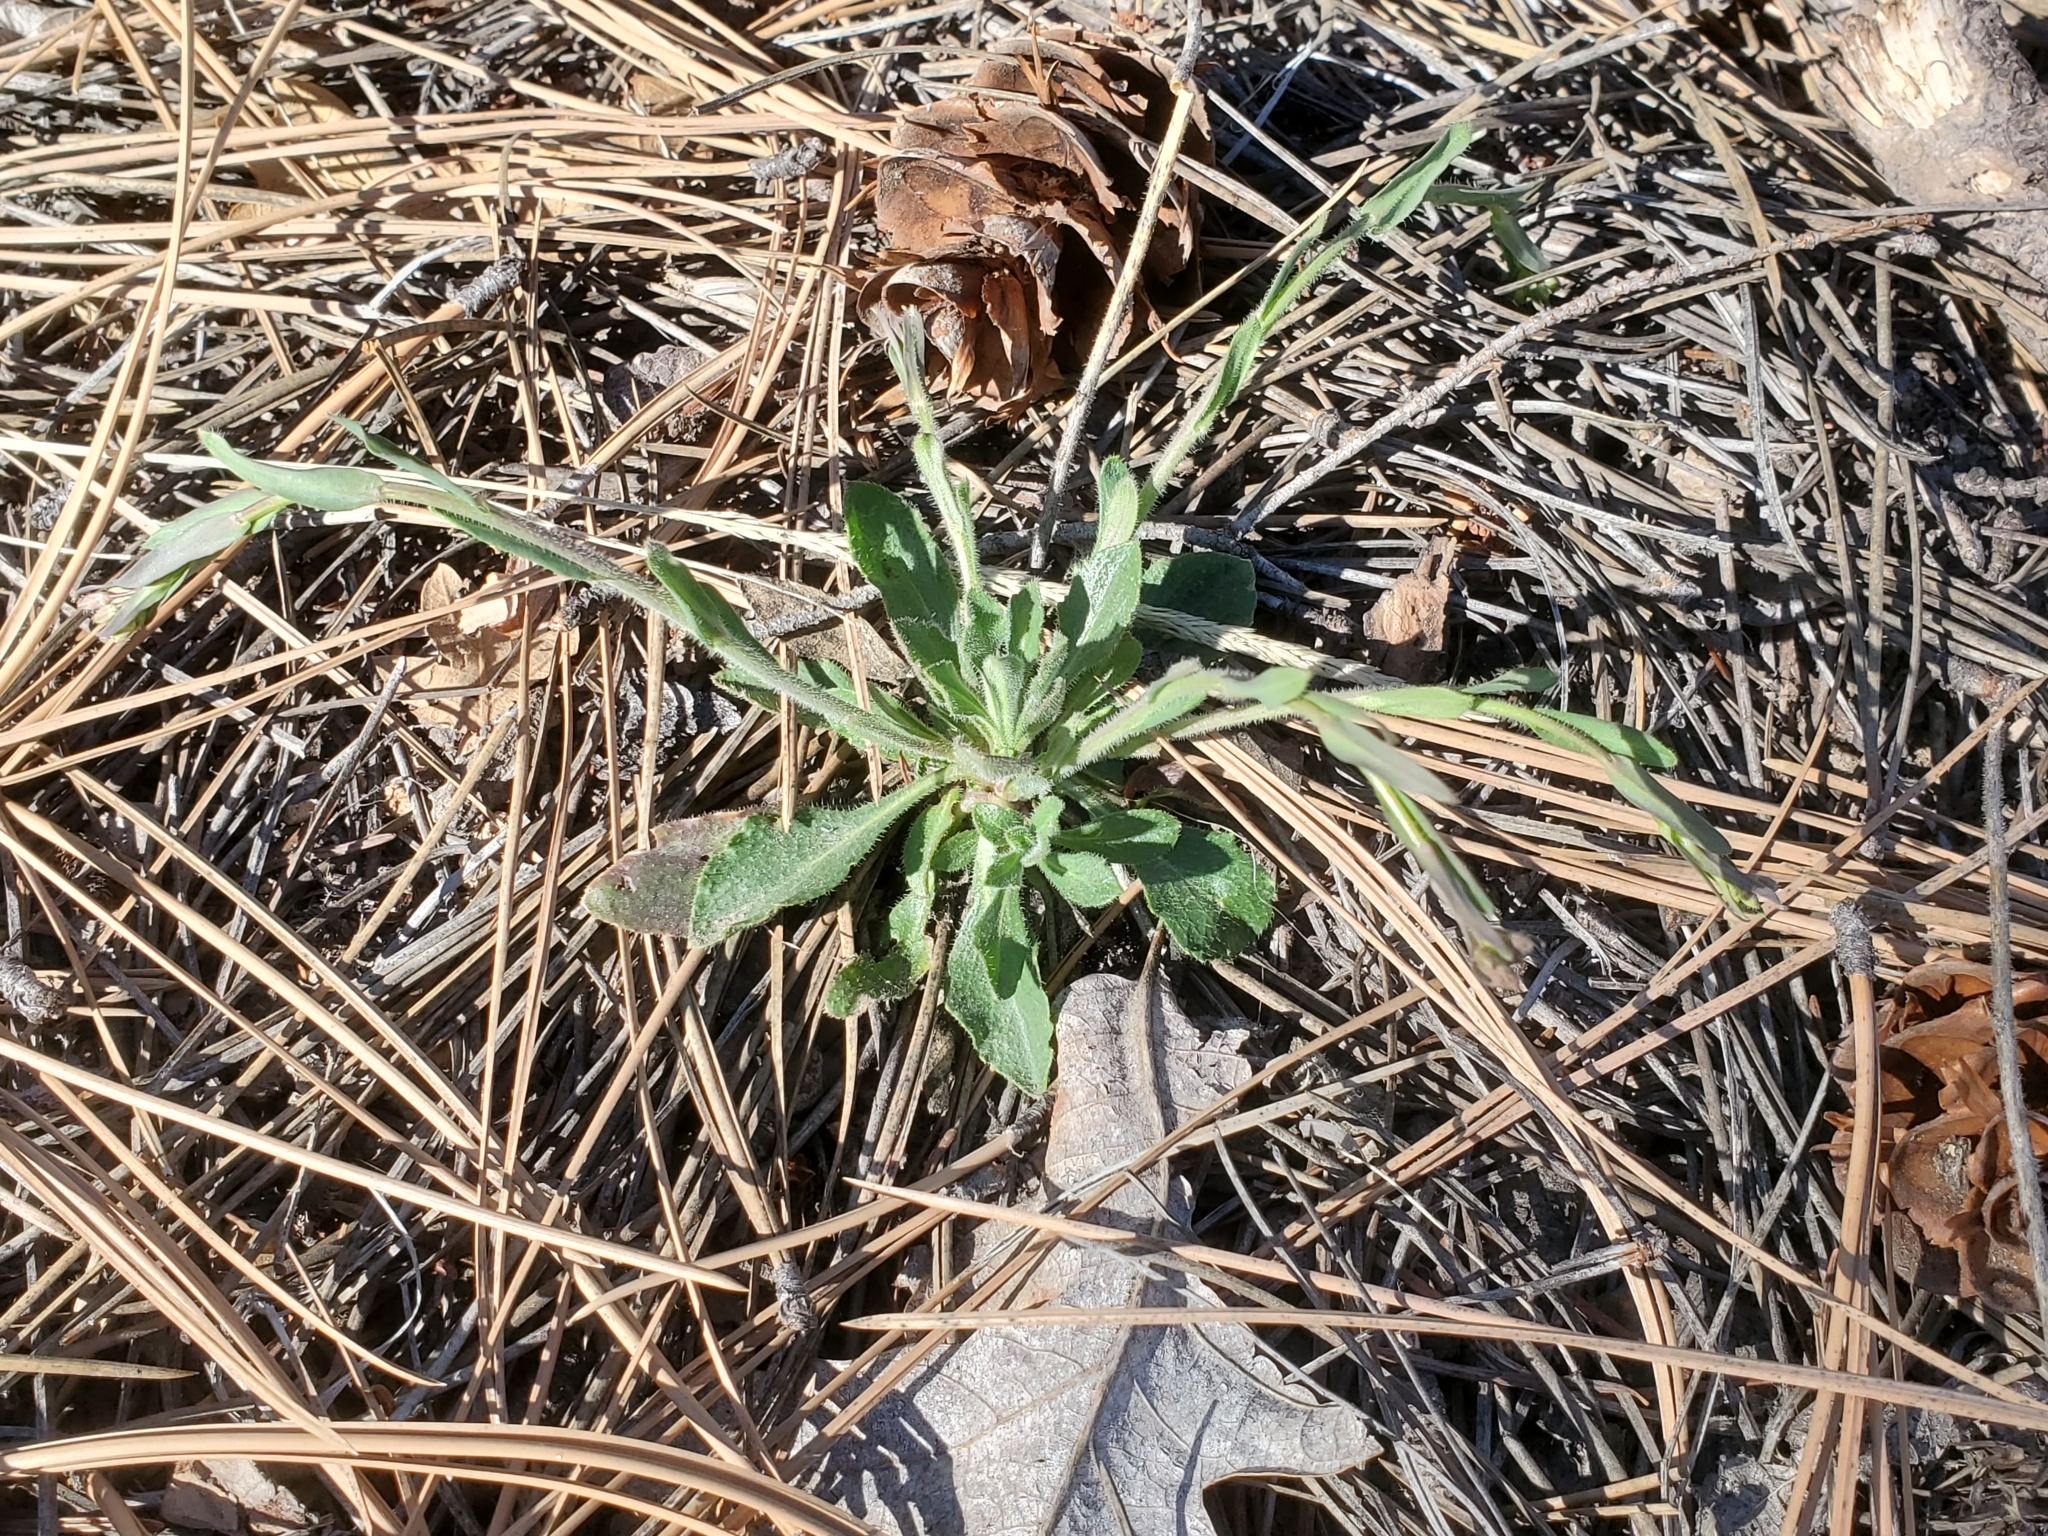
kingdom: Plantae
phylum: Tracheophyta
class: Magnoliopsida
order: Brassicales
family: Brassicaceae
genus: Boechera
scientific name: Boechera fendleri
